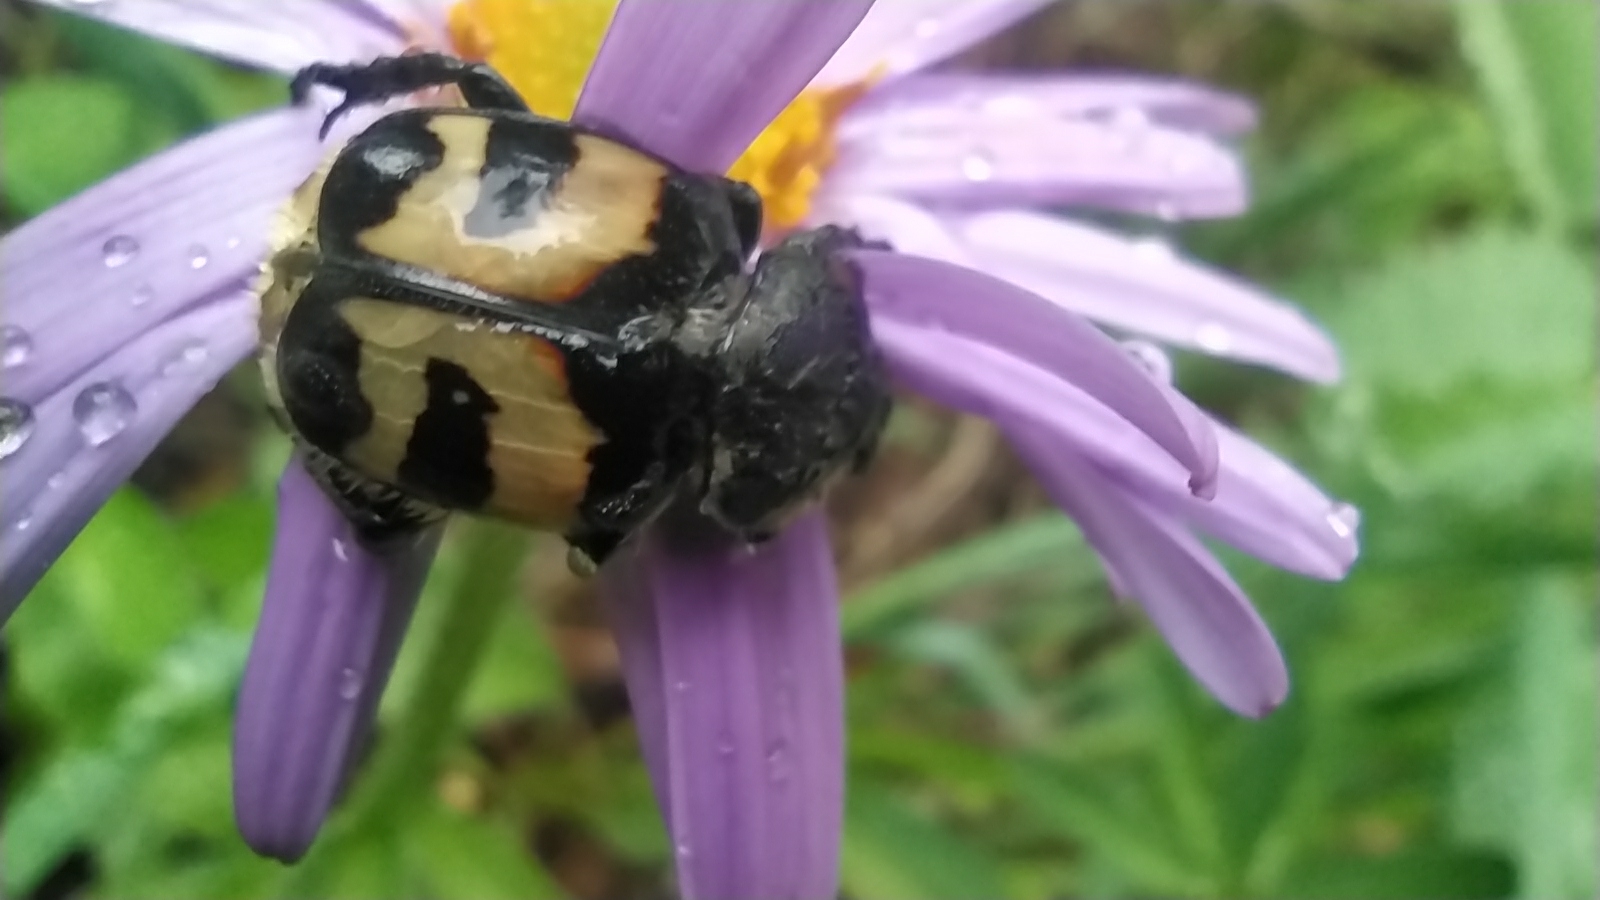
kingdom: Animalia
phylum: Arthropoda
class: Insecta
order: Coleoptera
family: Scarabaeidae
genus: Trichius
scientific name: Trichius fasciatus
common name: Bee beetle
